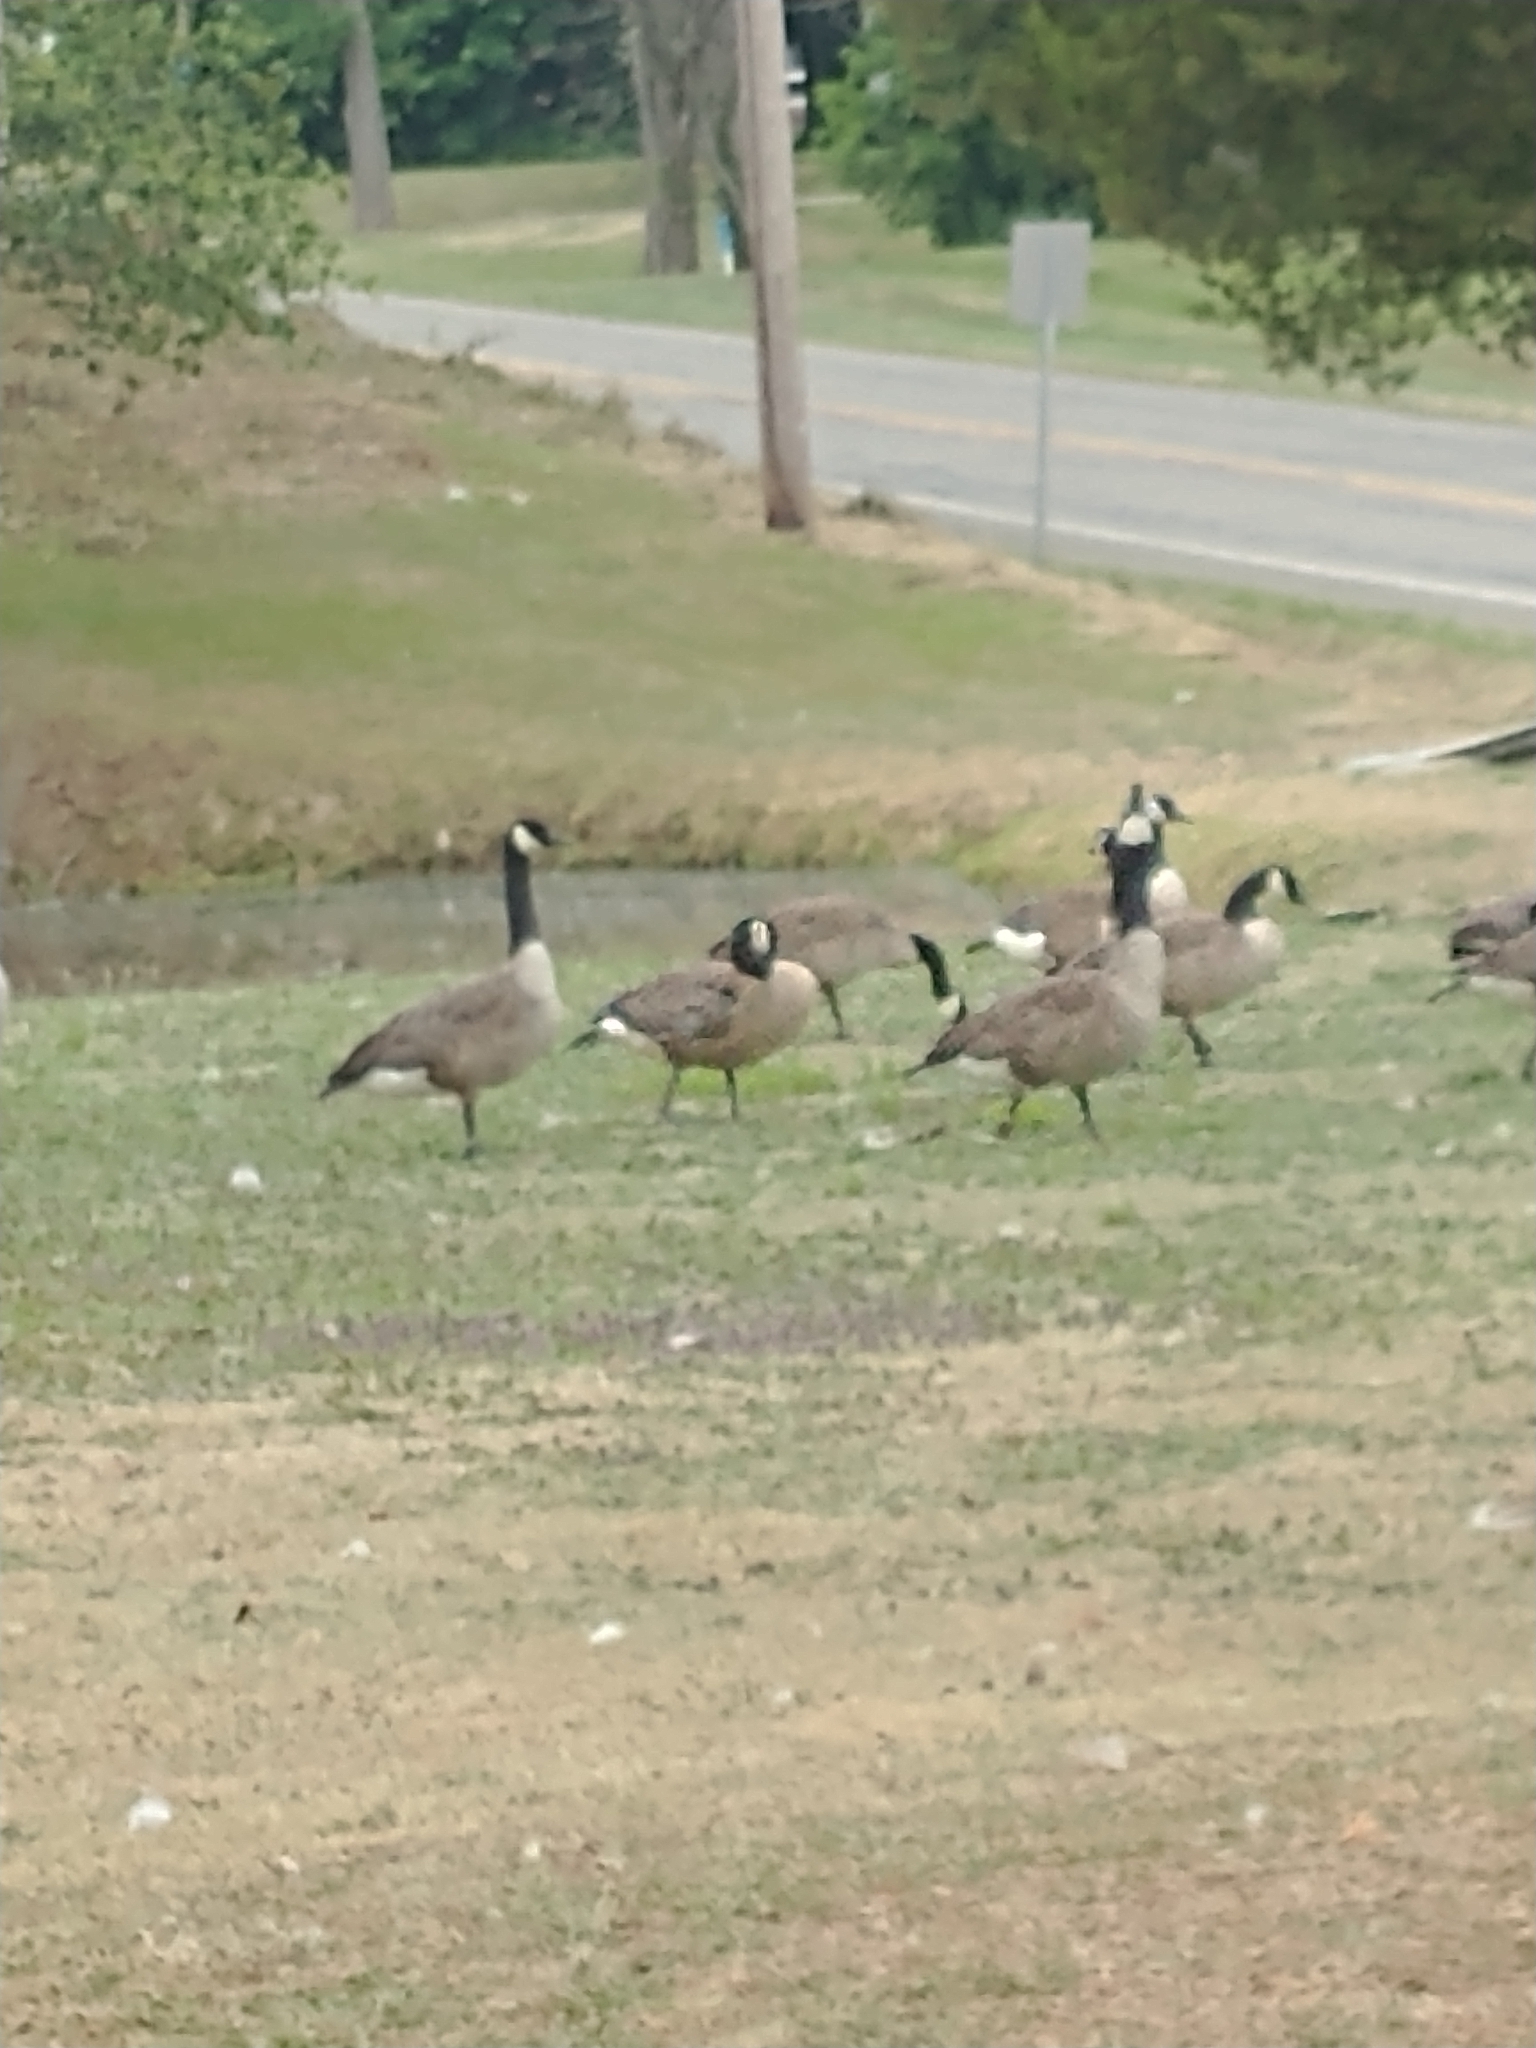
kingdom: Animalia
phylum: Chordata
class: Aves
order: Anseriformes
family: Anatidae
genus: Branta
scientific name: Branta canadensis
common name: Canada goose
